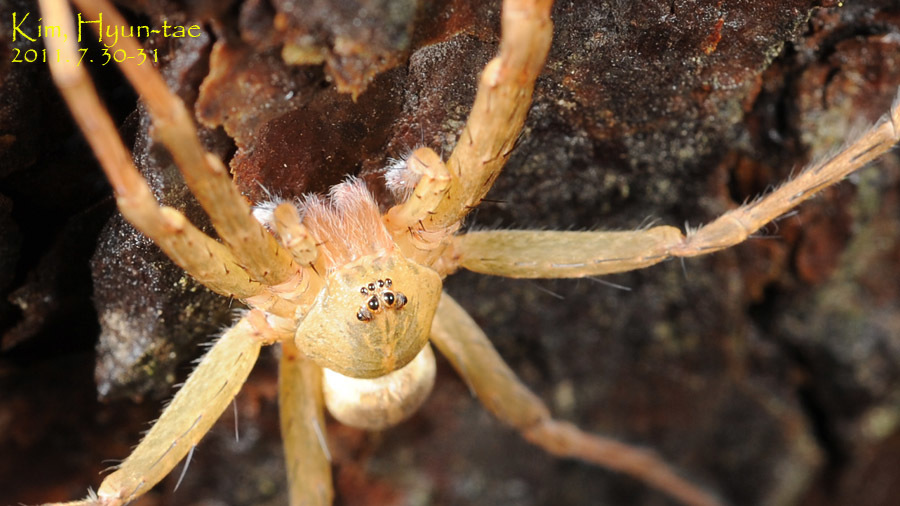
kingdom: Animalia
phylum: Arthropoda
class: Arachnida
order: Araneae
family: Pisauridae
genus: Dolomedes
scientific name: Dolomedes sulfureus
